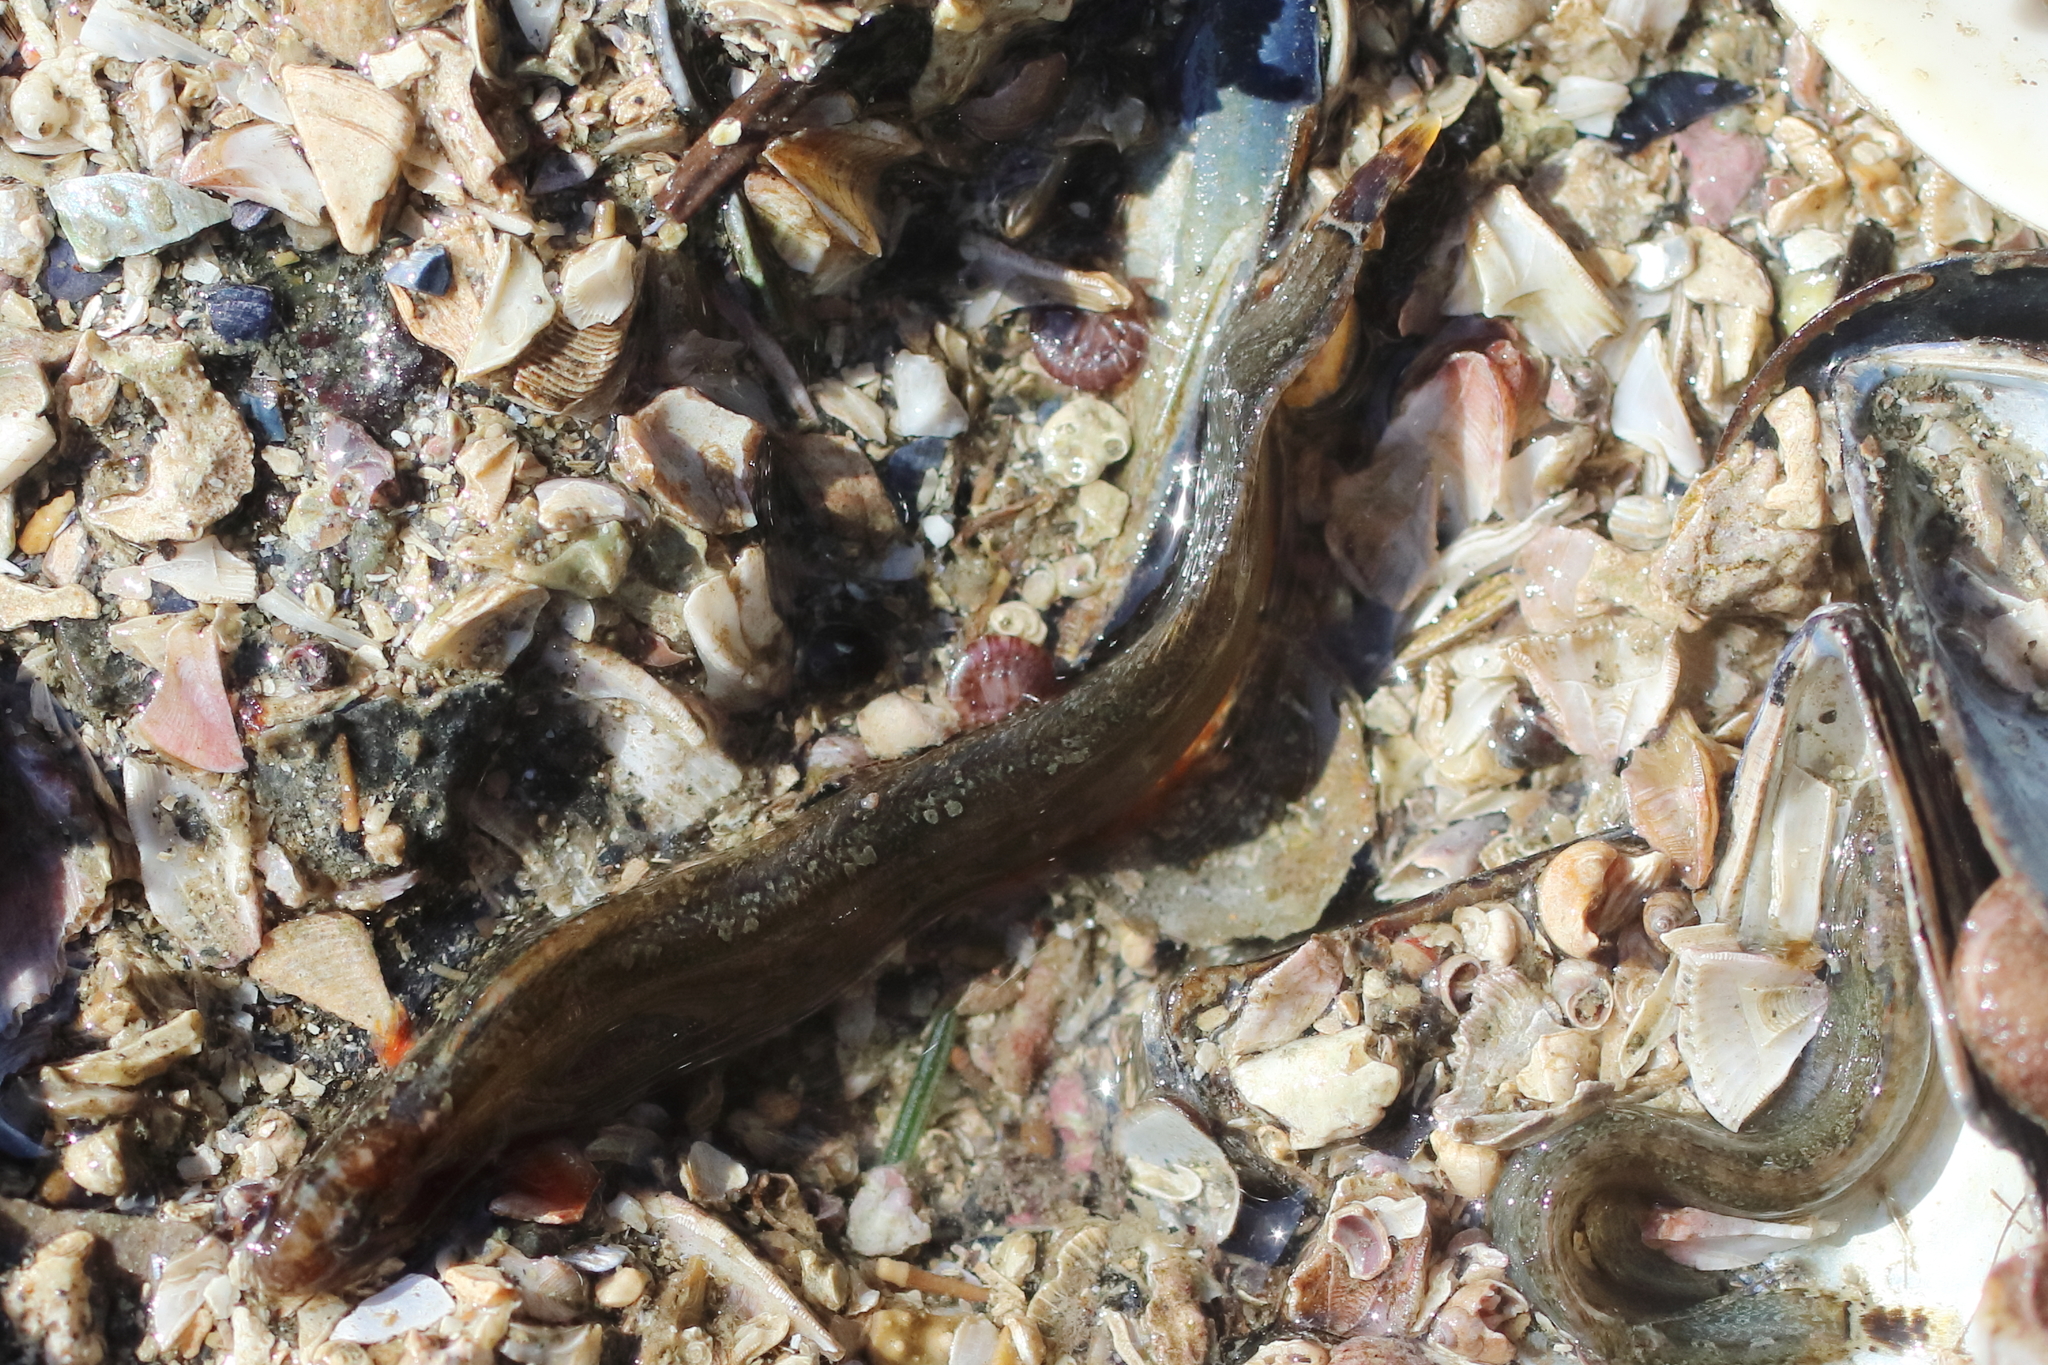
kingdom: Animalia
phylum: Chordata
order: Perciformes
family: Stichaeidae
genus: Anoplarchus
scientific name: Anoplarchus purpurescens
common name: High cockscomb
